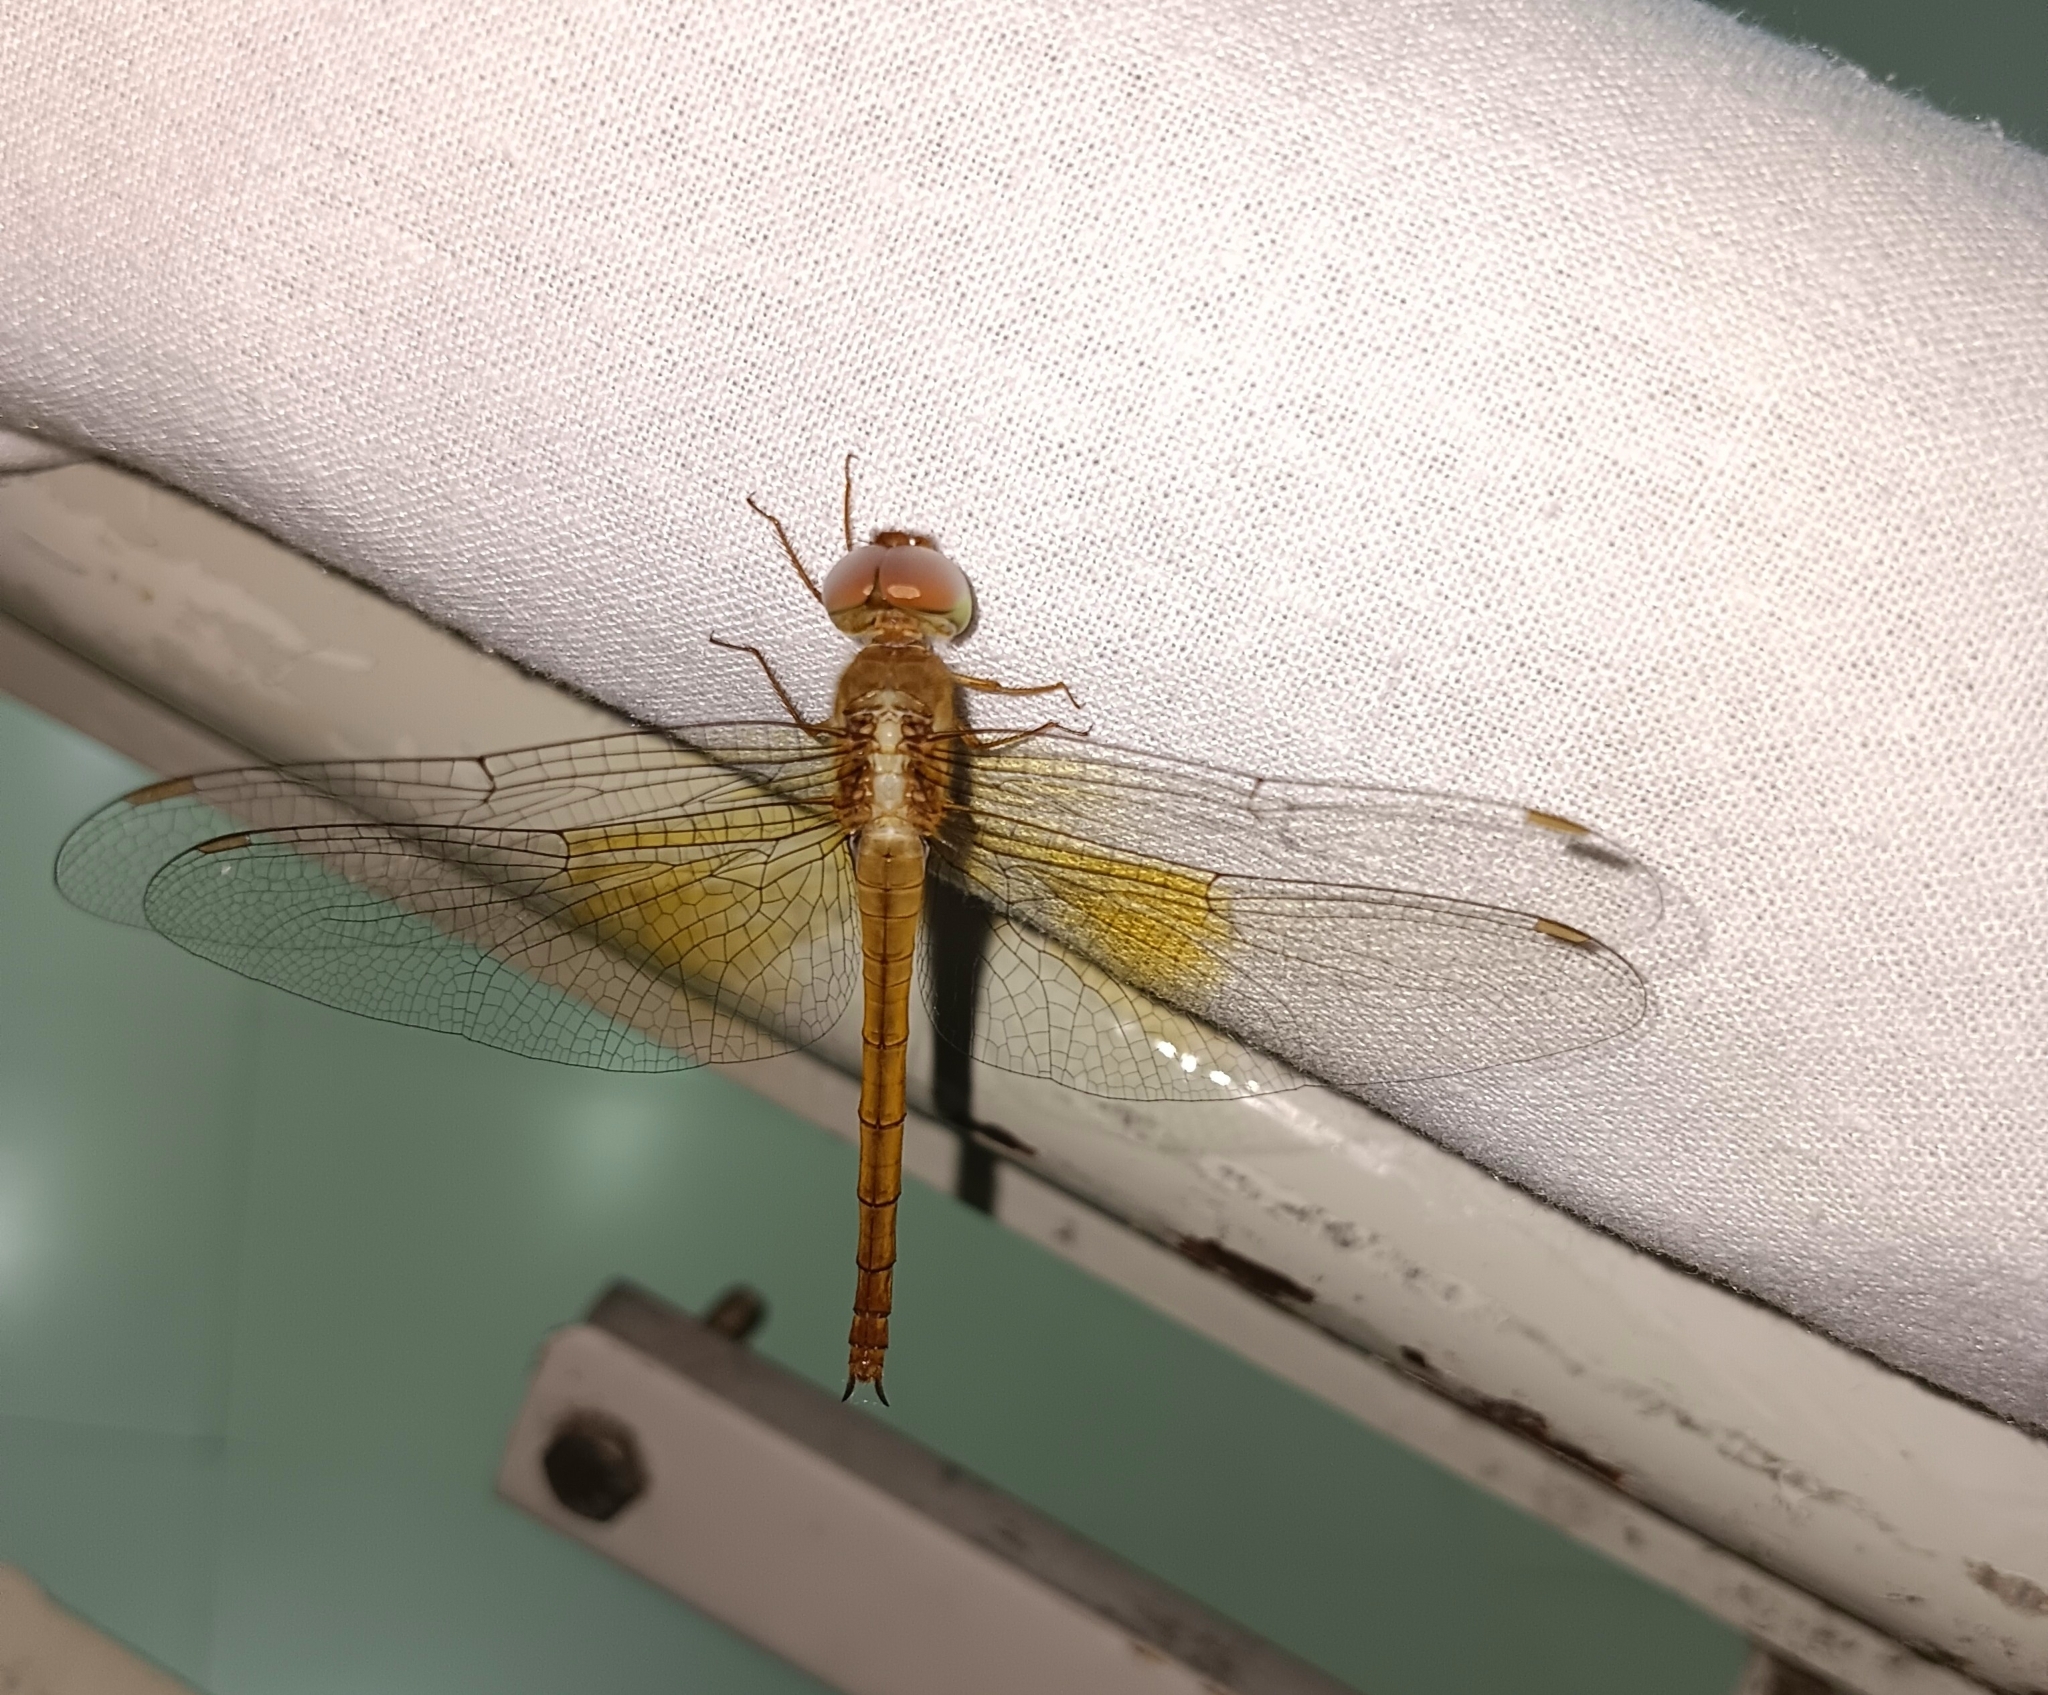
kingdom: Animalia
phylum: Arthropoda
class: Insecta
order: Odonata
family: Libellulidae
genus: Tholymis
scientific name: Tholymis tillarga
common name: Coral-tailed cloud wing
